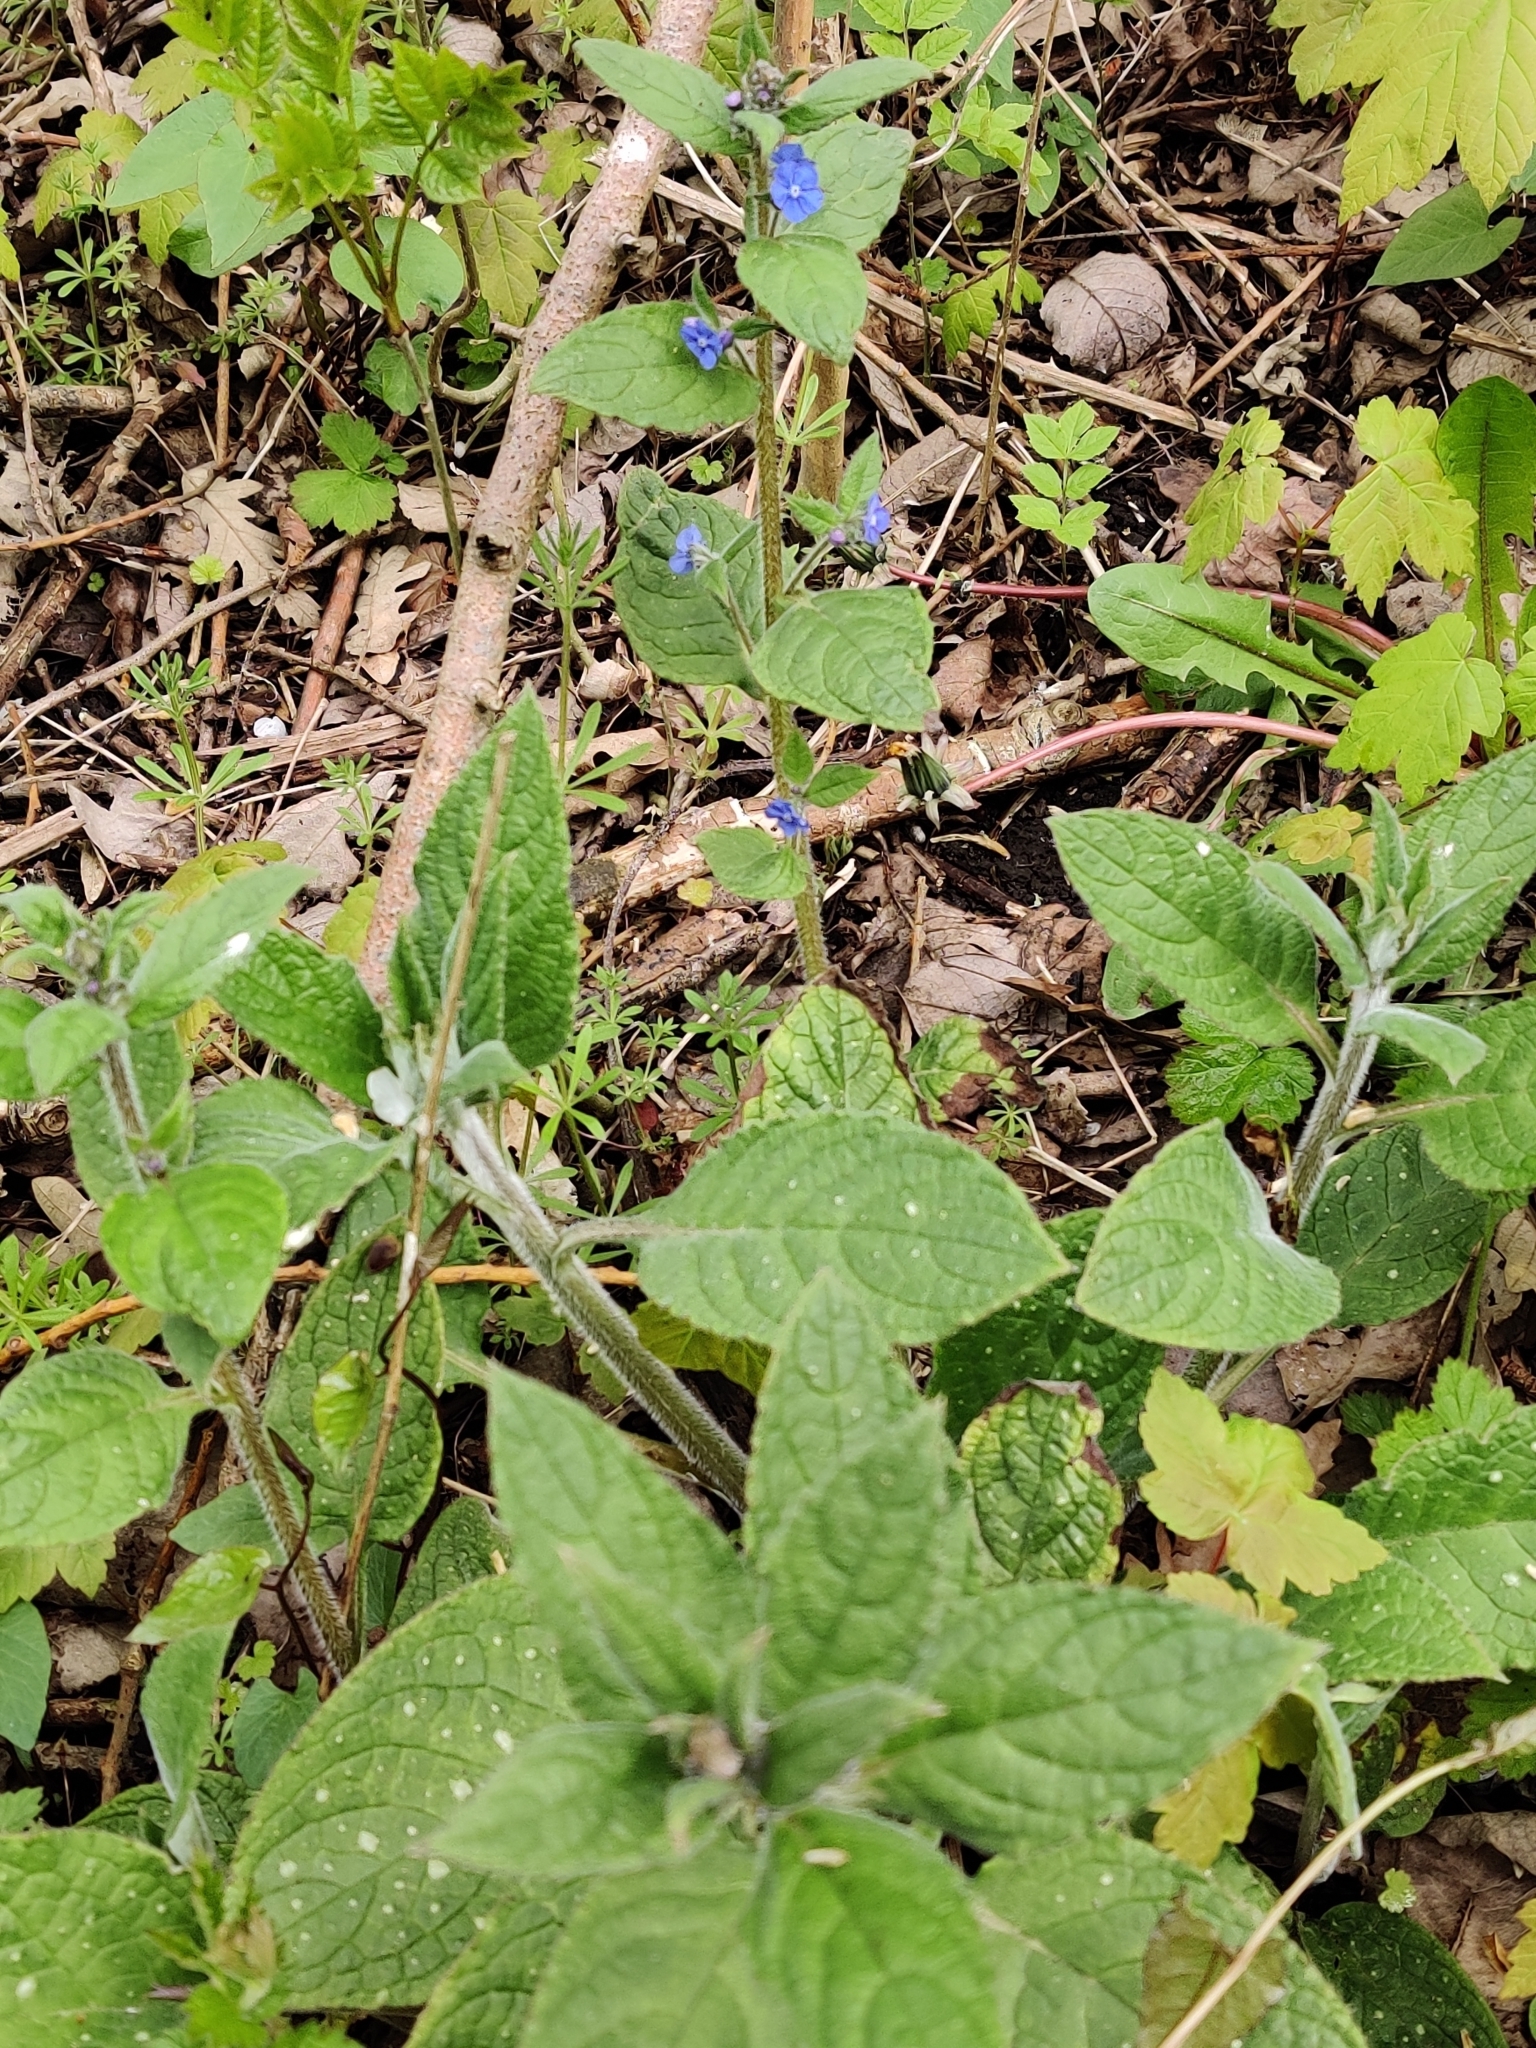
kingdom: Plantae
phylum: Tracheophyta
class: Magnoliopsida
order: Boraginales
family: Boraginaceae
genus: Pentaglottis
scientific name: Pentaglottis sempervirens
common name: Green alkanet
